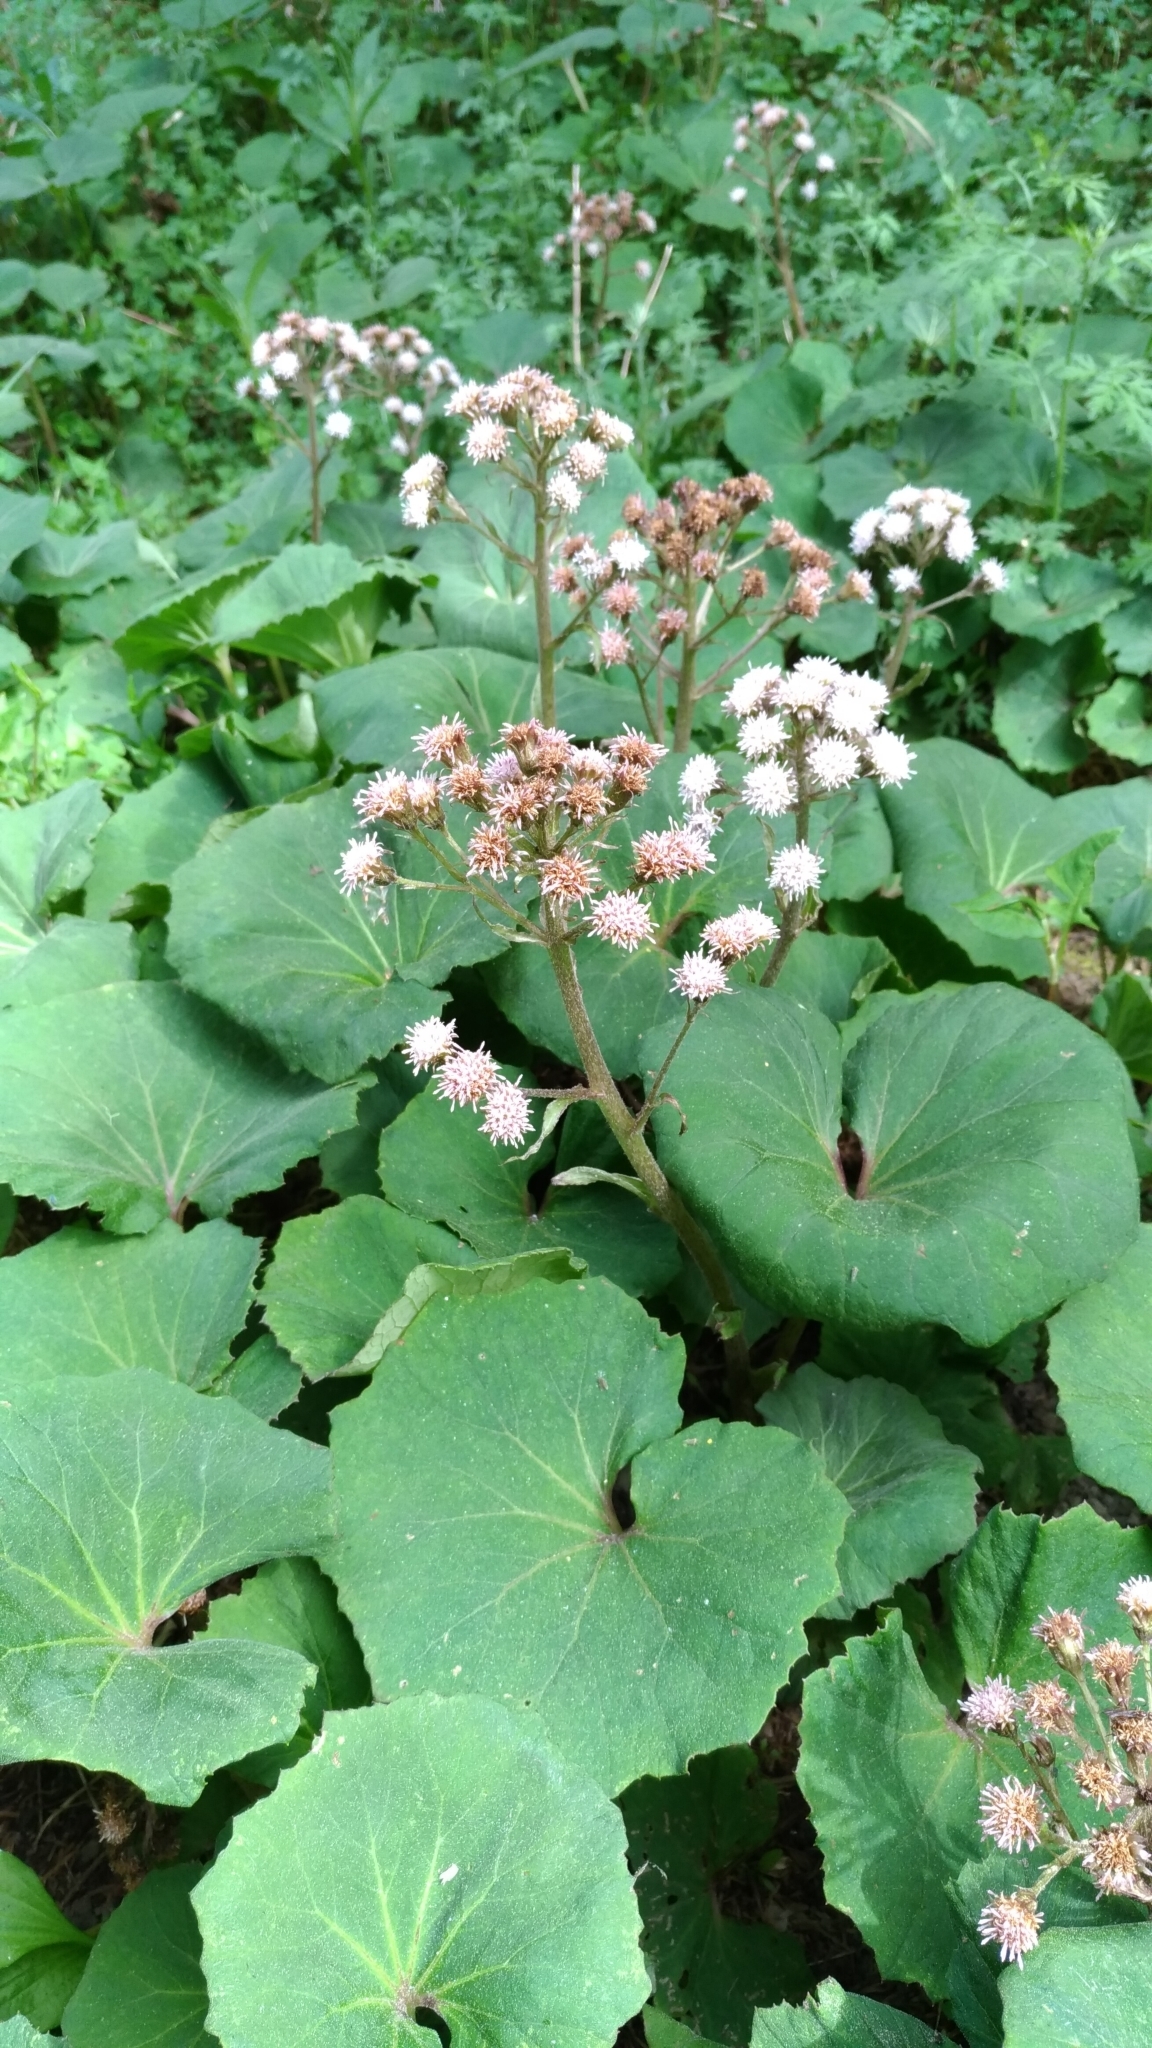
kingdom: Plantae
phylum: Tracheophyta
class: Magnoliopsida
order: Asterales
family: Asteraceae
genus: Petasites
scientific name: Petasites formosanus
